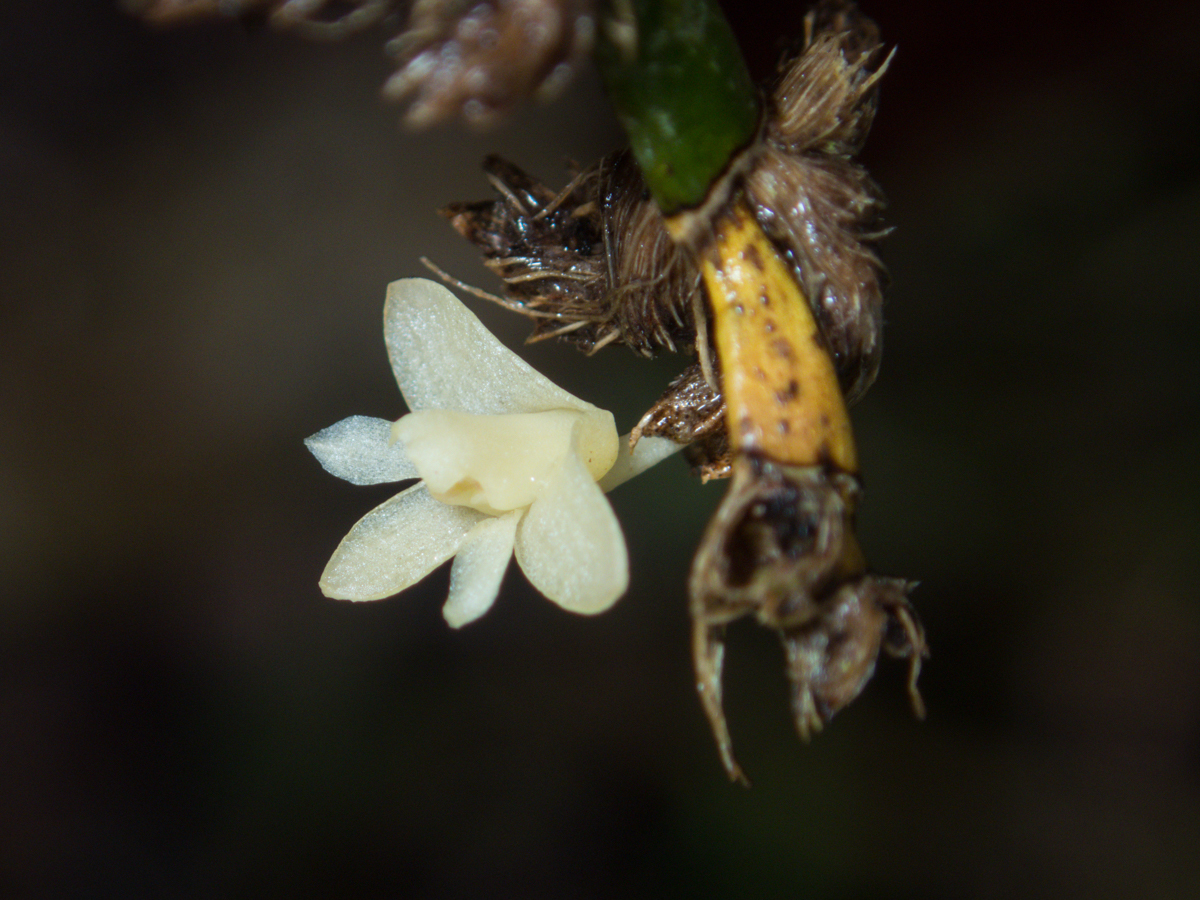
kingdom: Plantae
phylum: Tracheophyta
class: Liliopsida
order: Asparagales
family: Orchidaceae
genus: Dendrobium
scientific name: Dendrobium aloifolium
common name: Aloe-like dendrobium
